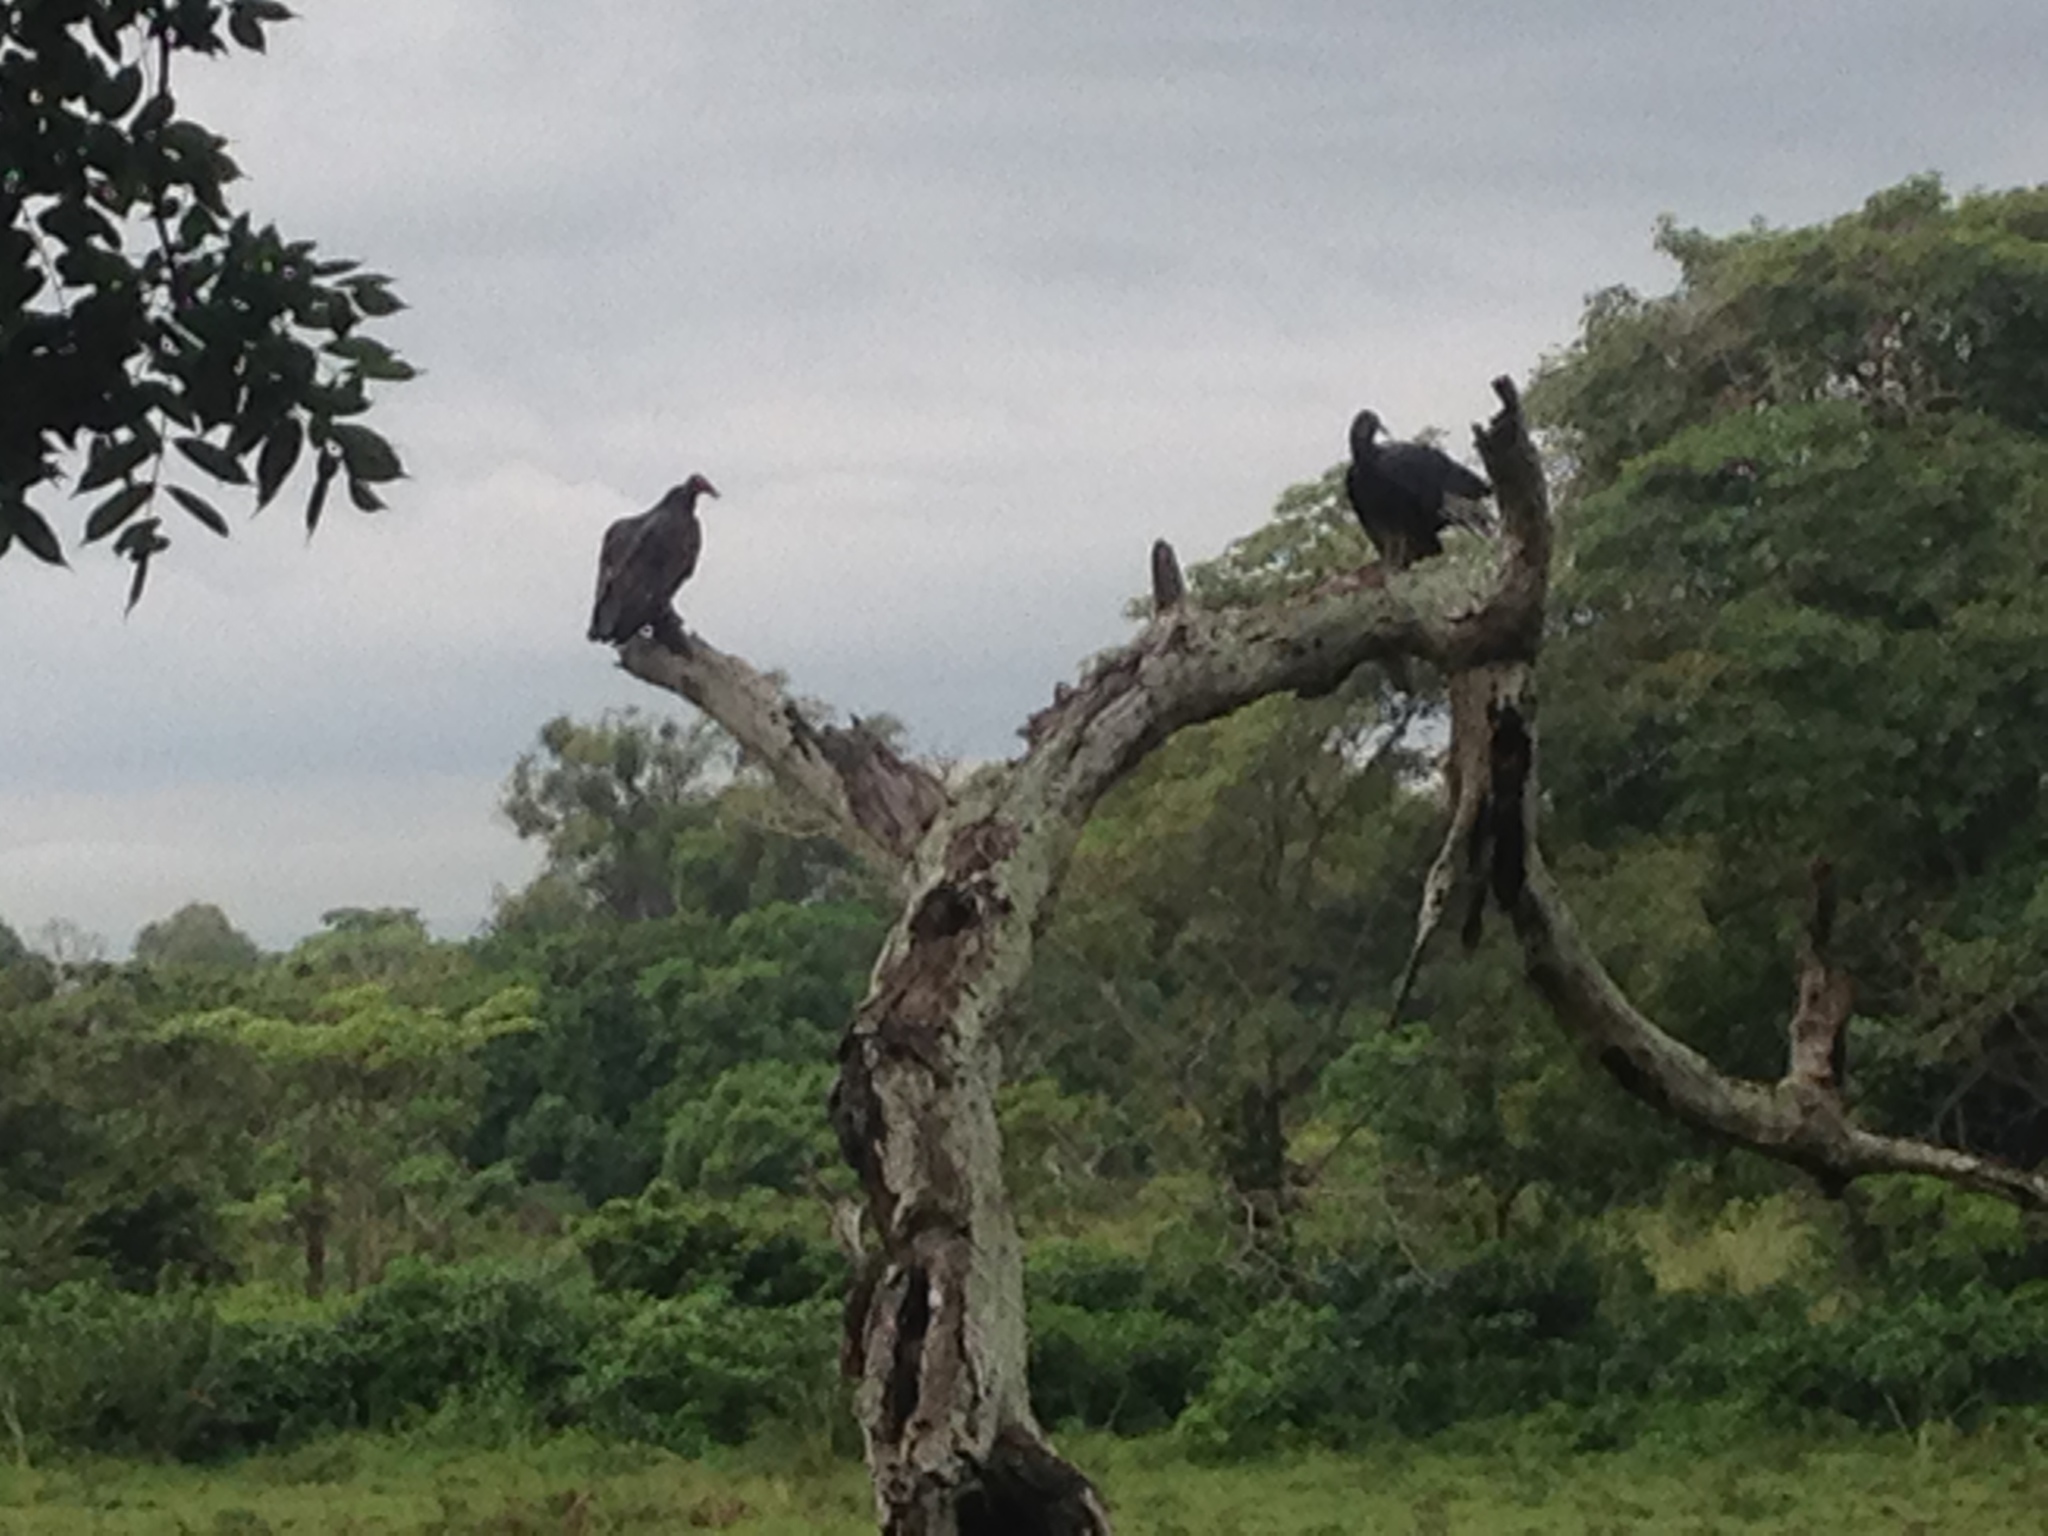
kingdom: Animalia
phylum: Chordata
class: Aves
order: Accipitriformes
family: Cathartidae
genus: Coragyps
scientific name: Coragyps atratus
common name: Black vulture
